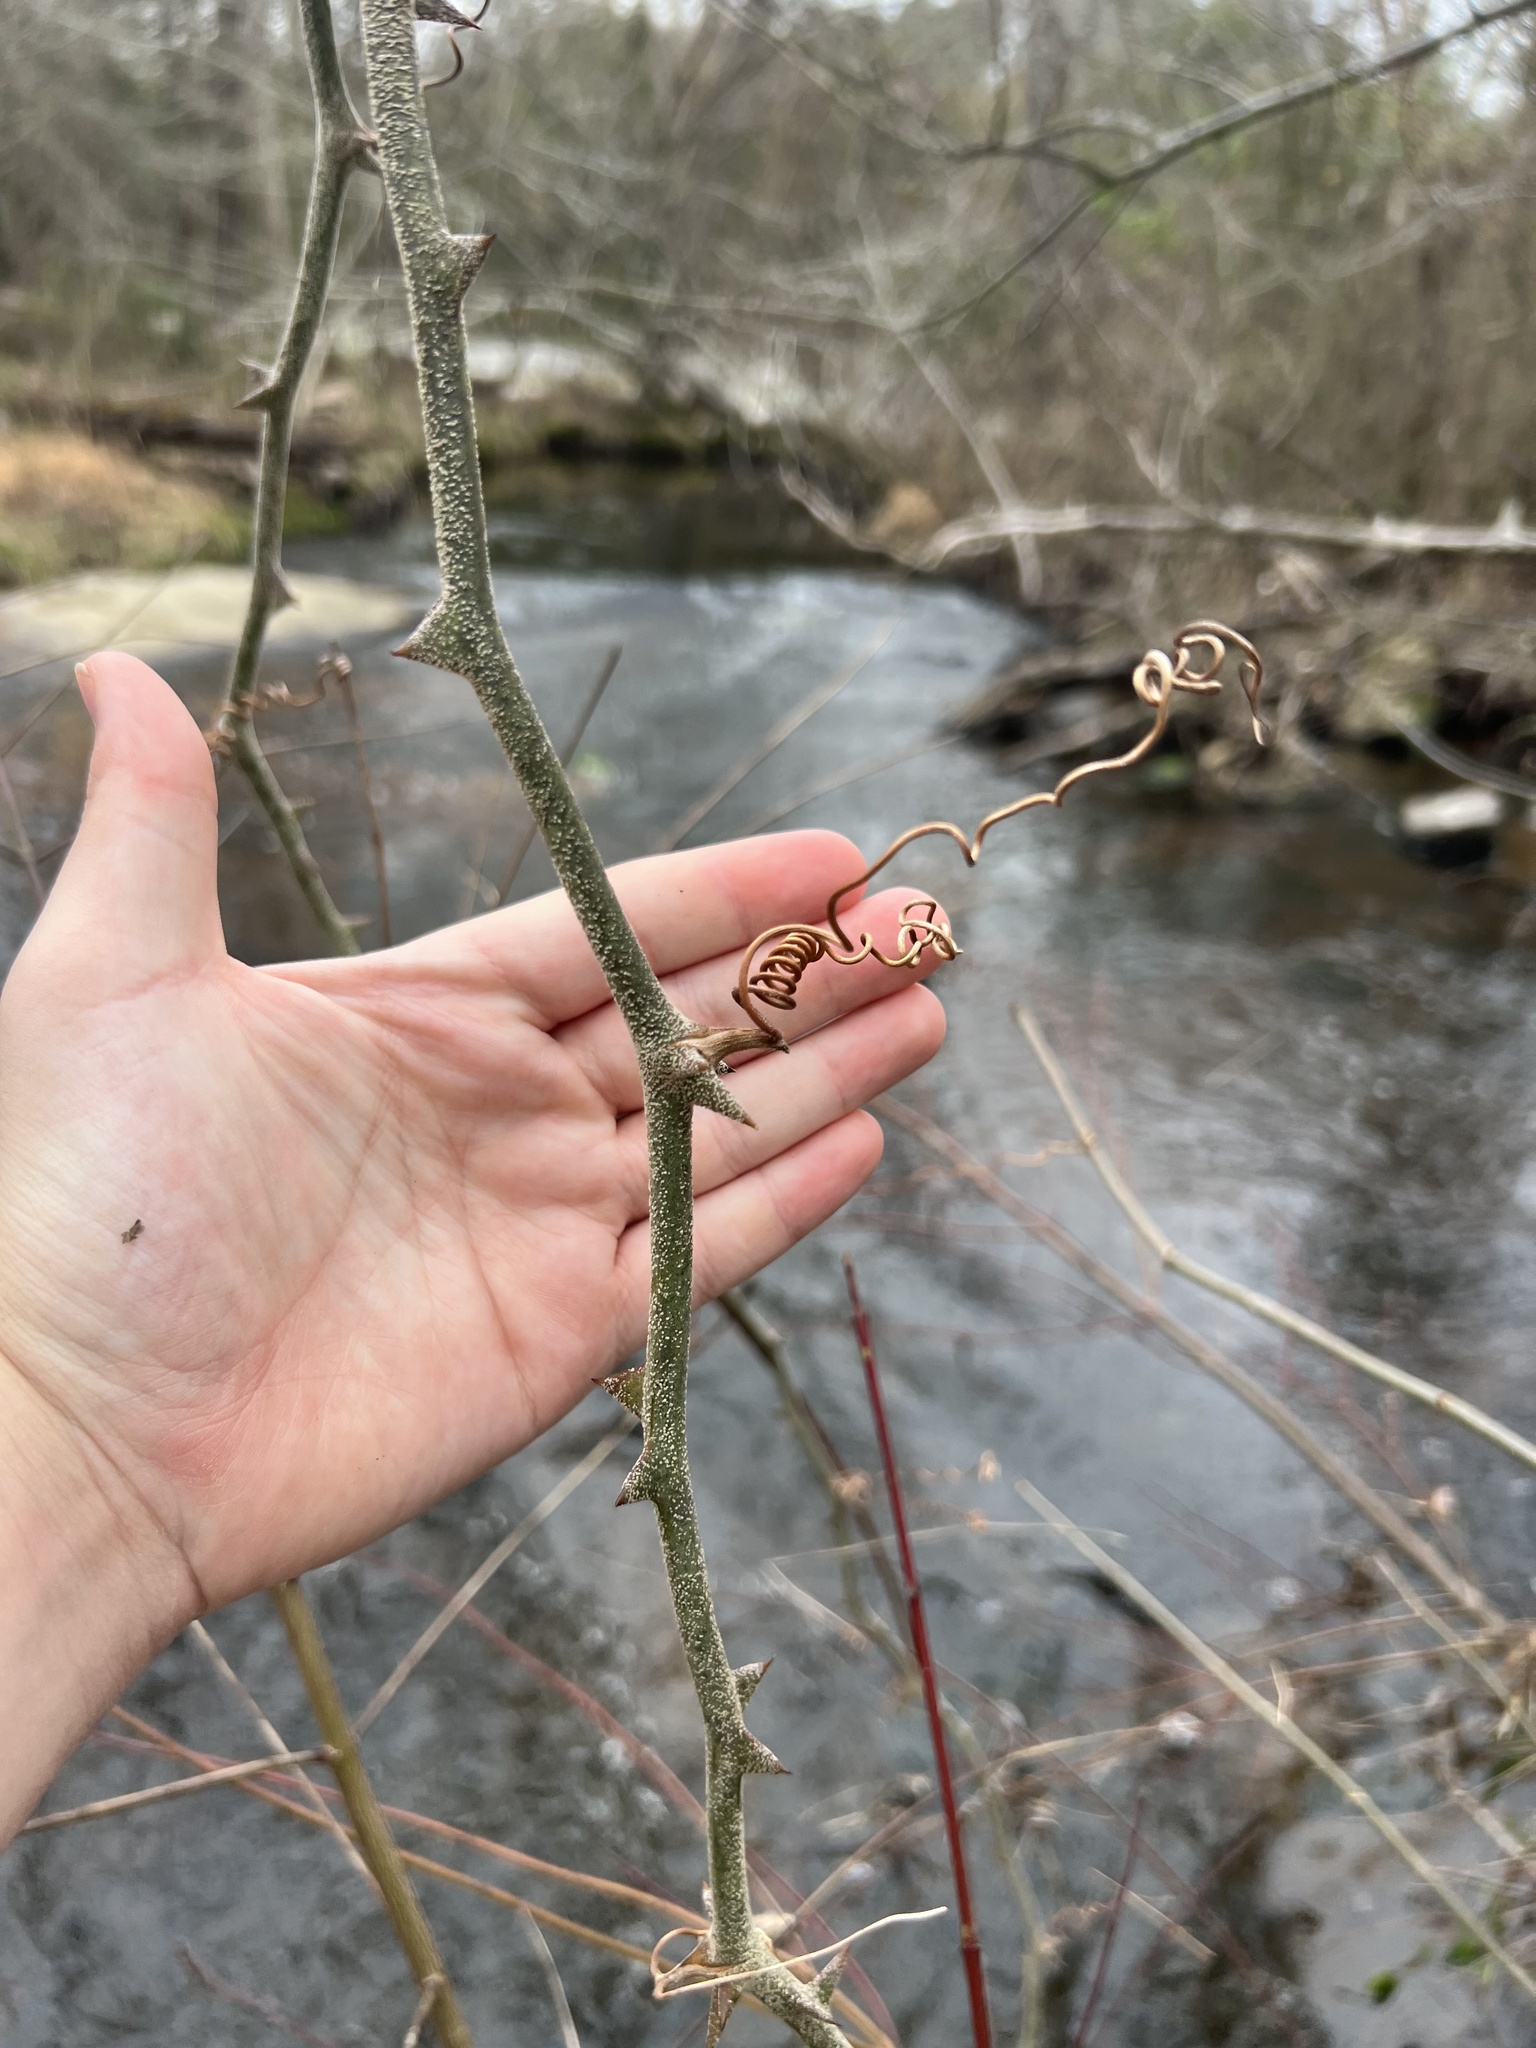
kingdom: Plantae
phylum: Tracheophyta
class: Liliopsida
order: Liliales
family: Smilacaceae
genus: Smilax
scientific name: Smilax bona-nox
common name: Catbrier
